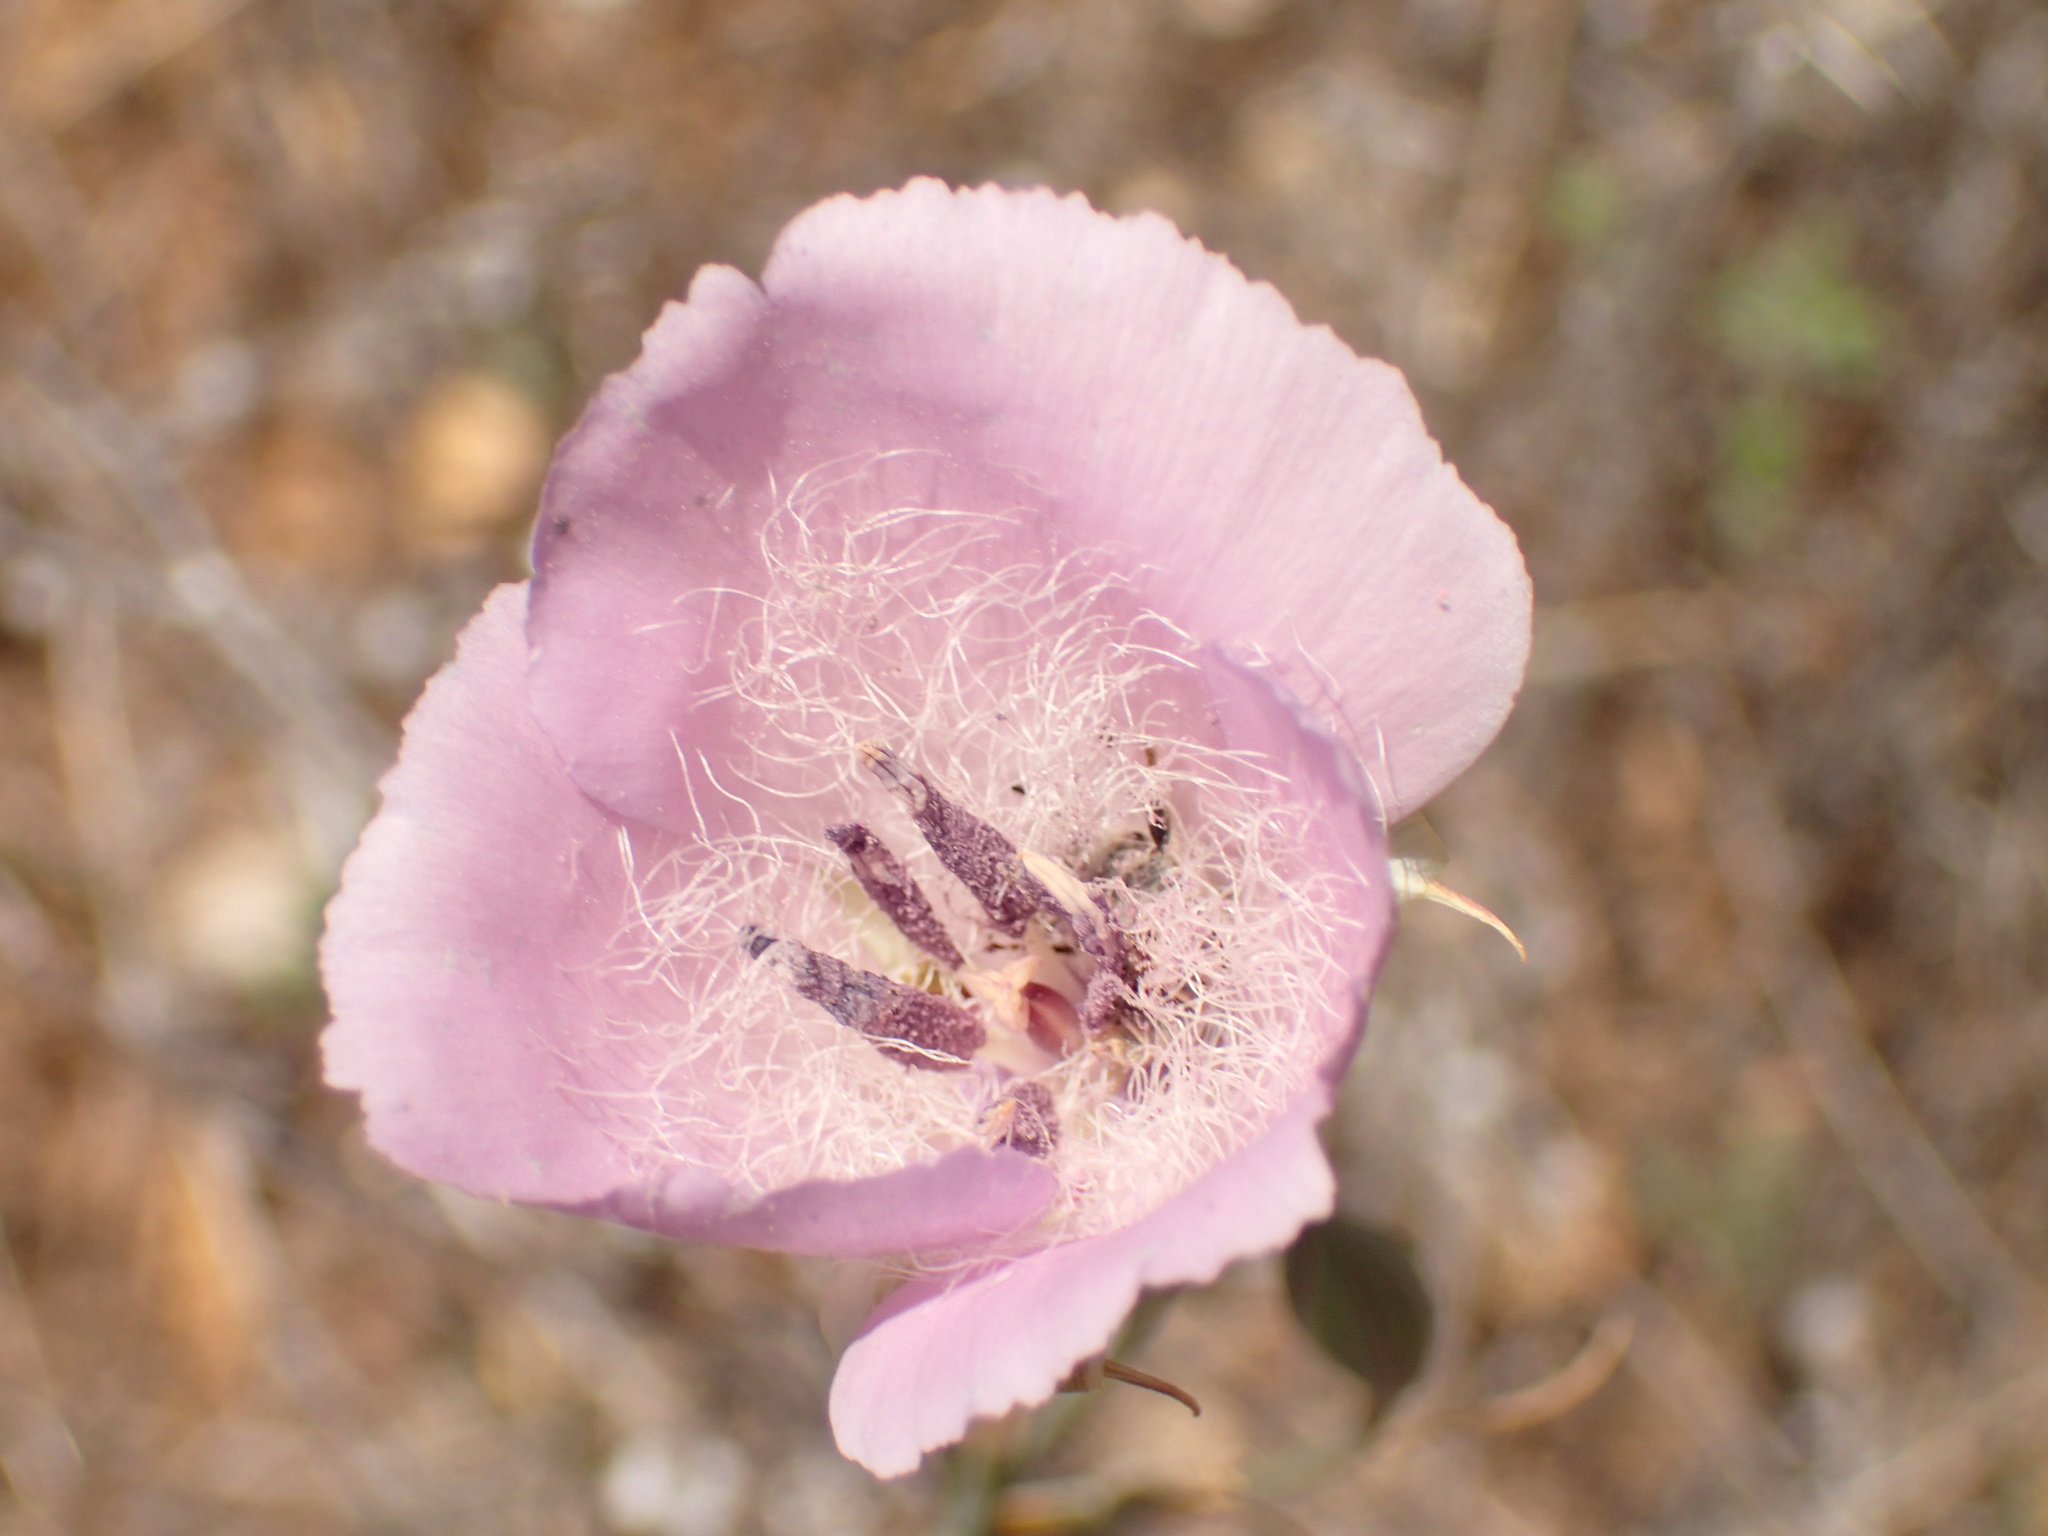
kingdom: Plantae
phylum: Tracheophyta
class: Liliopsida
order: Liliales
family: Liliaceae
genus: Calochortus
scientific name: Calochortus splendens
